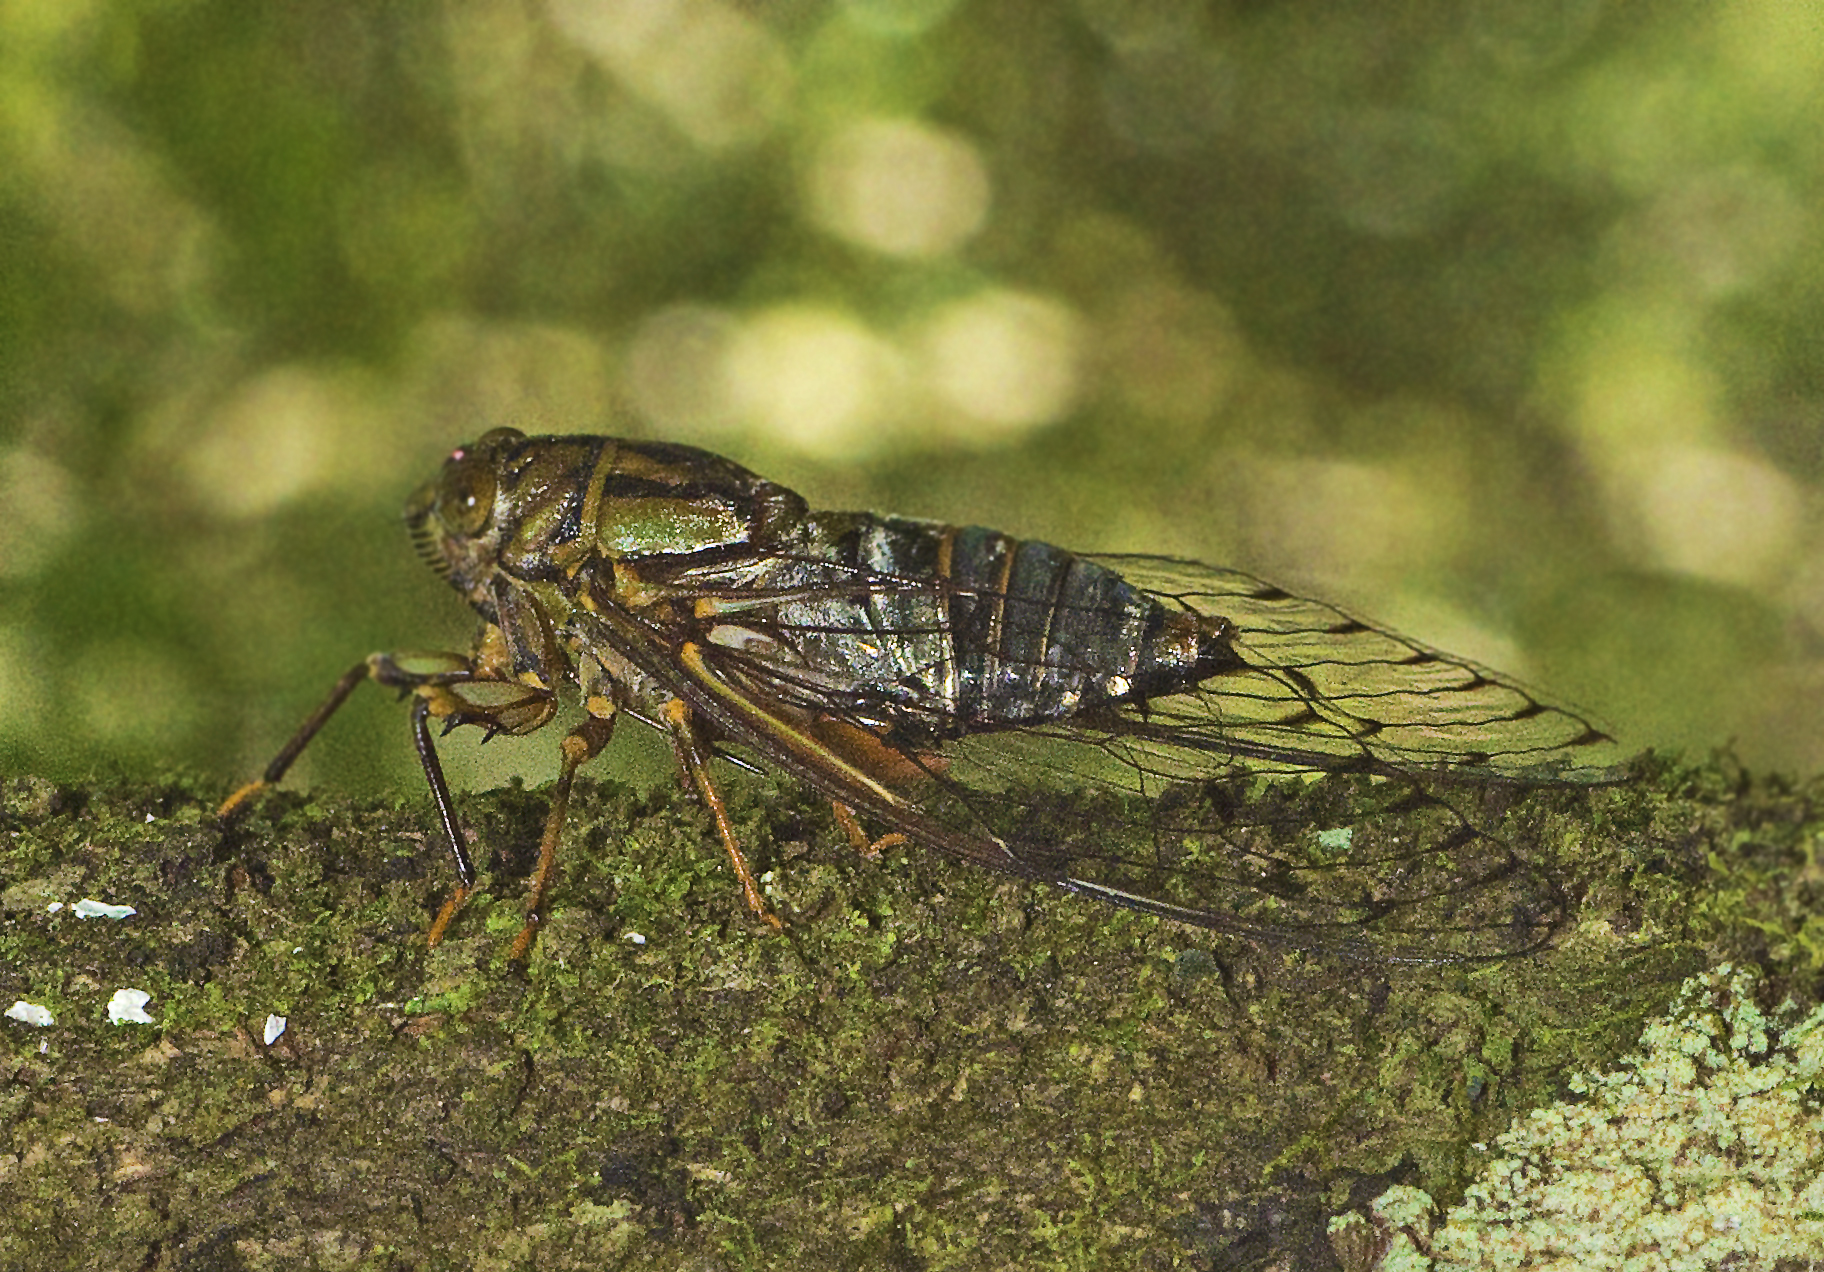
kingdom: Animalia
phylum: Arthropoda
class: Insecta
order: Hemiptera
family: Cicadidae
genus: Henicopsaltria
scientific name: Henicopsaltria rufivelum
